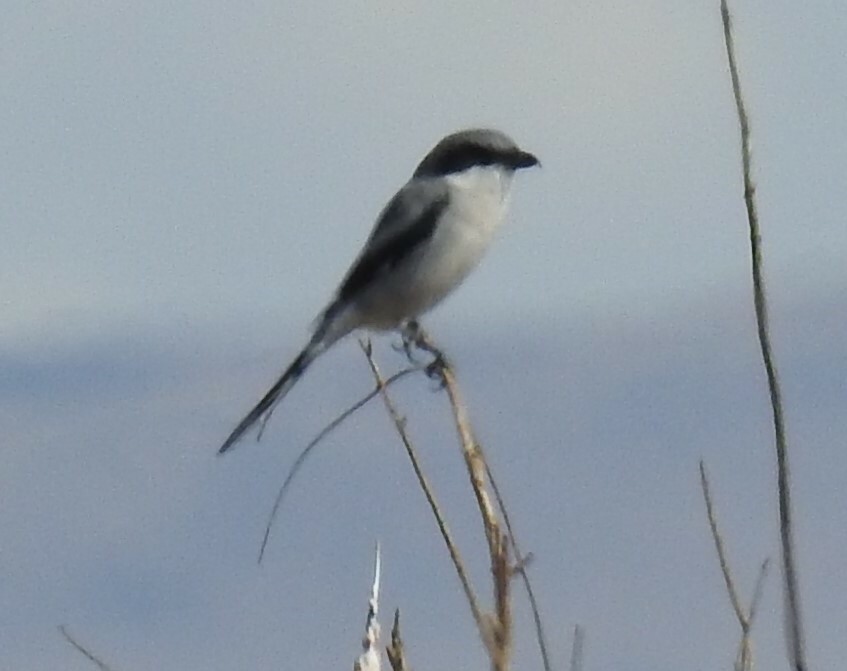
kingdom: Animalia
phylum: Chordata
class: Aves
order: Passeriformes
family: Laniidae
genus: Lanius
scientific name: Lanius ludovicianus
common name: Loggerhead shrike
